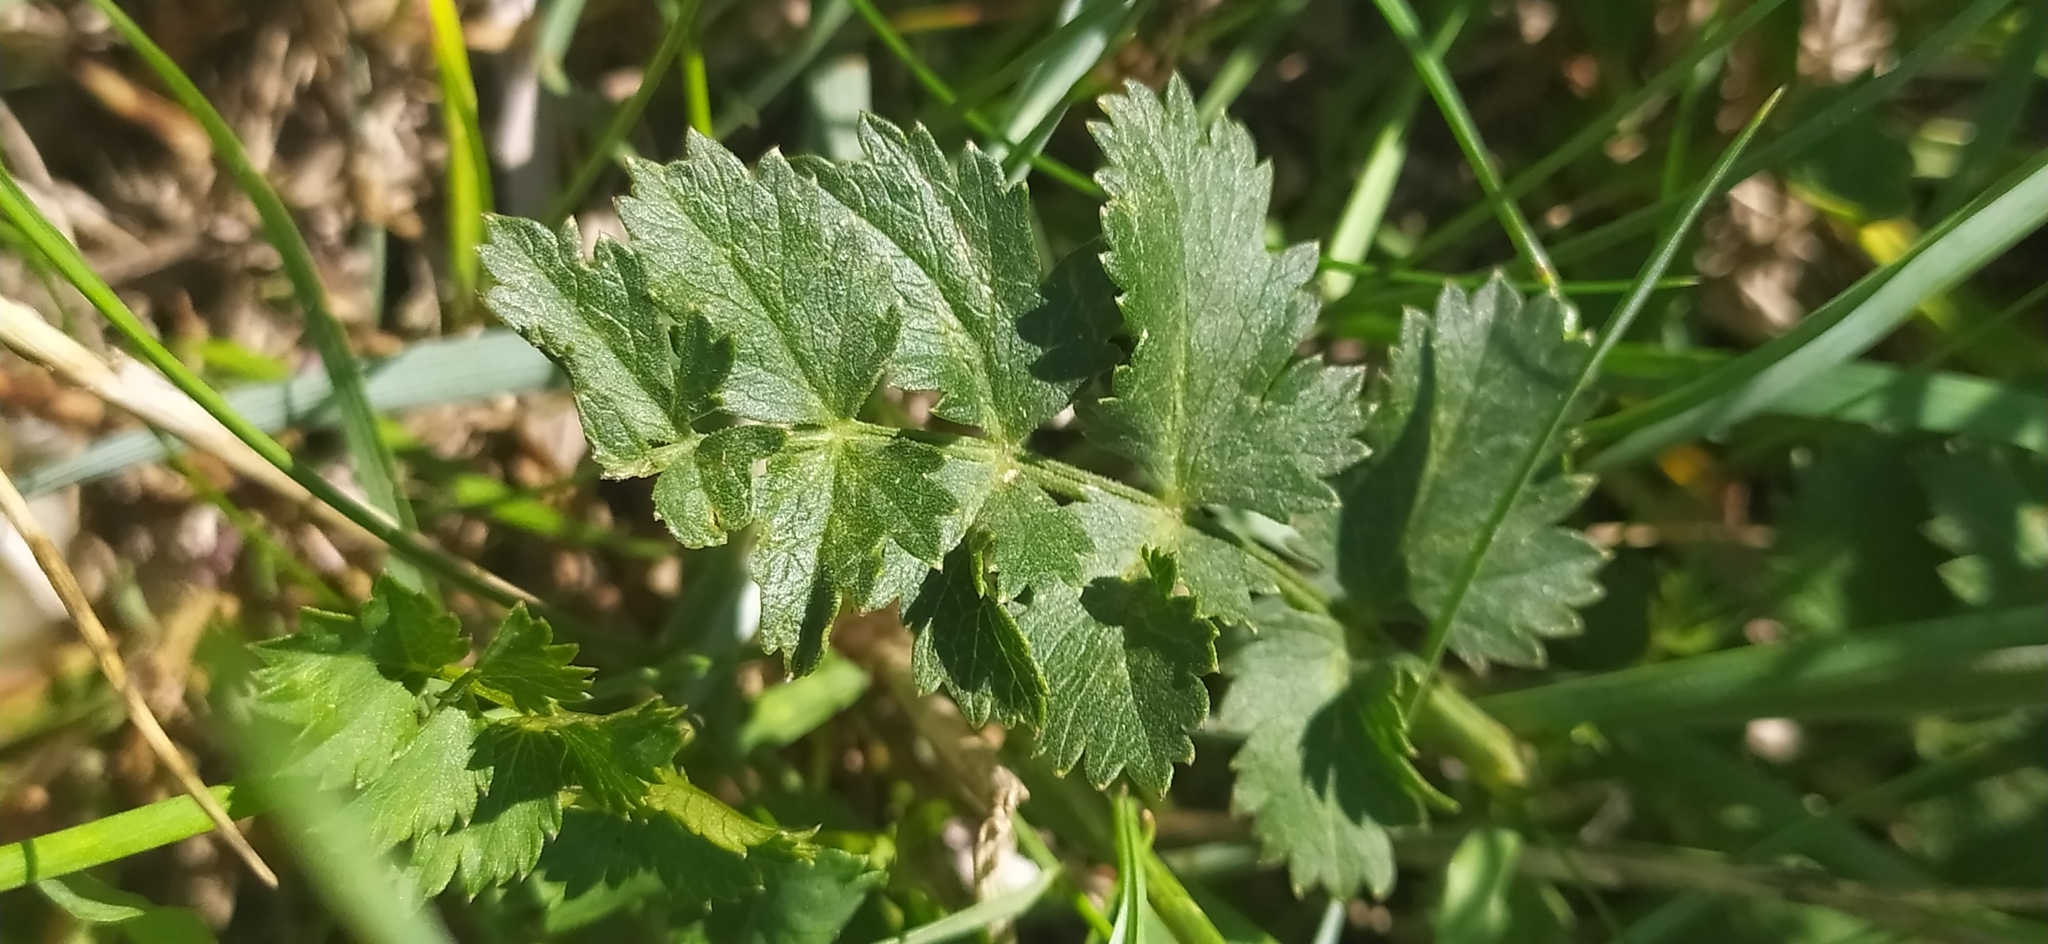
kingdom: Plantae
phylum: Tracheophyta
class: Magnoliopsida
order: Apiales
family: Apiaceae
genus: Pimpinella
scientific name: Pimpinella saxifraga
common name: Burnet-saxifrage
